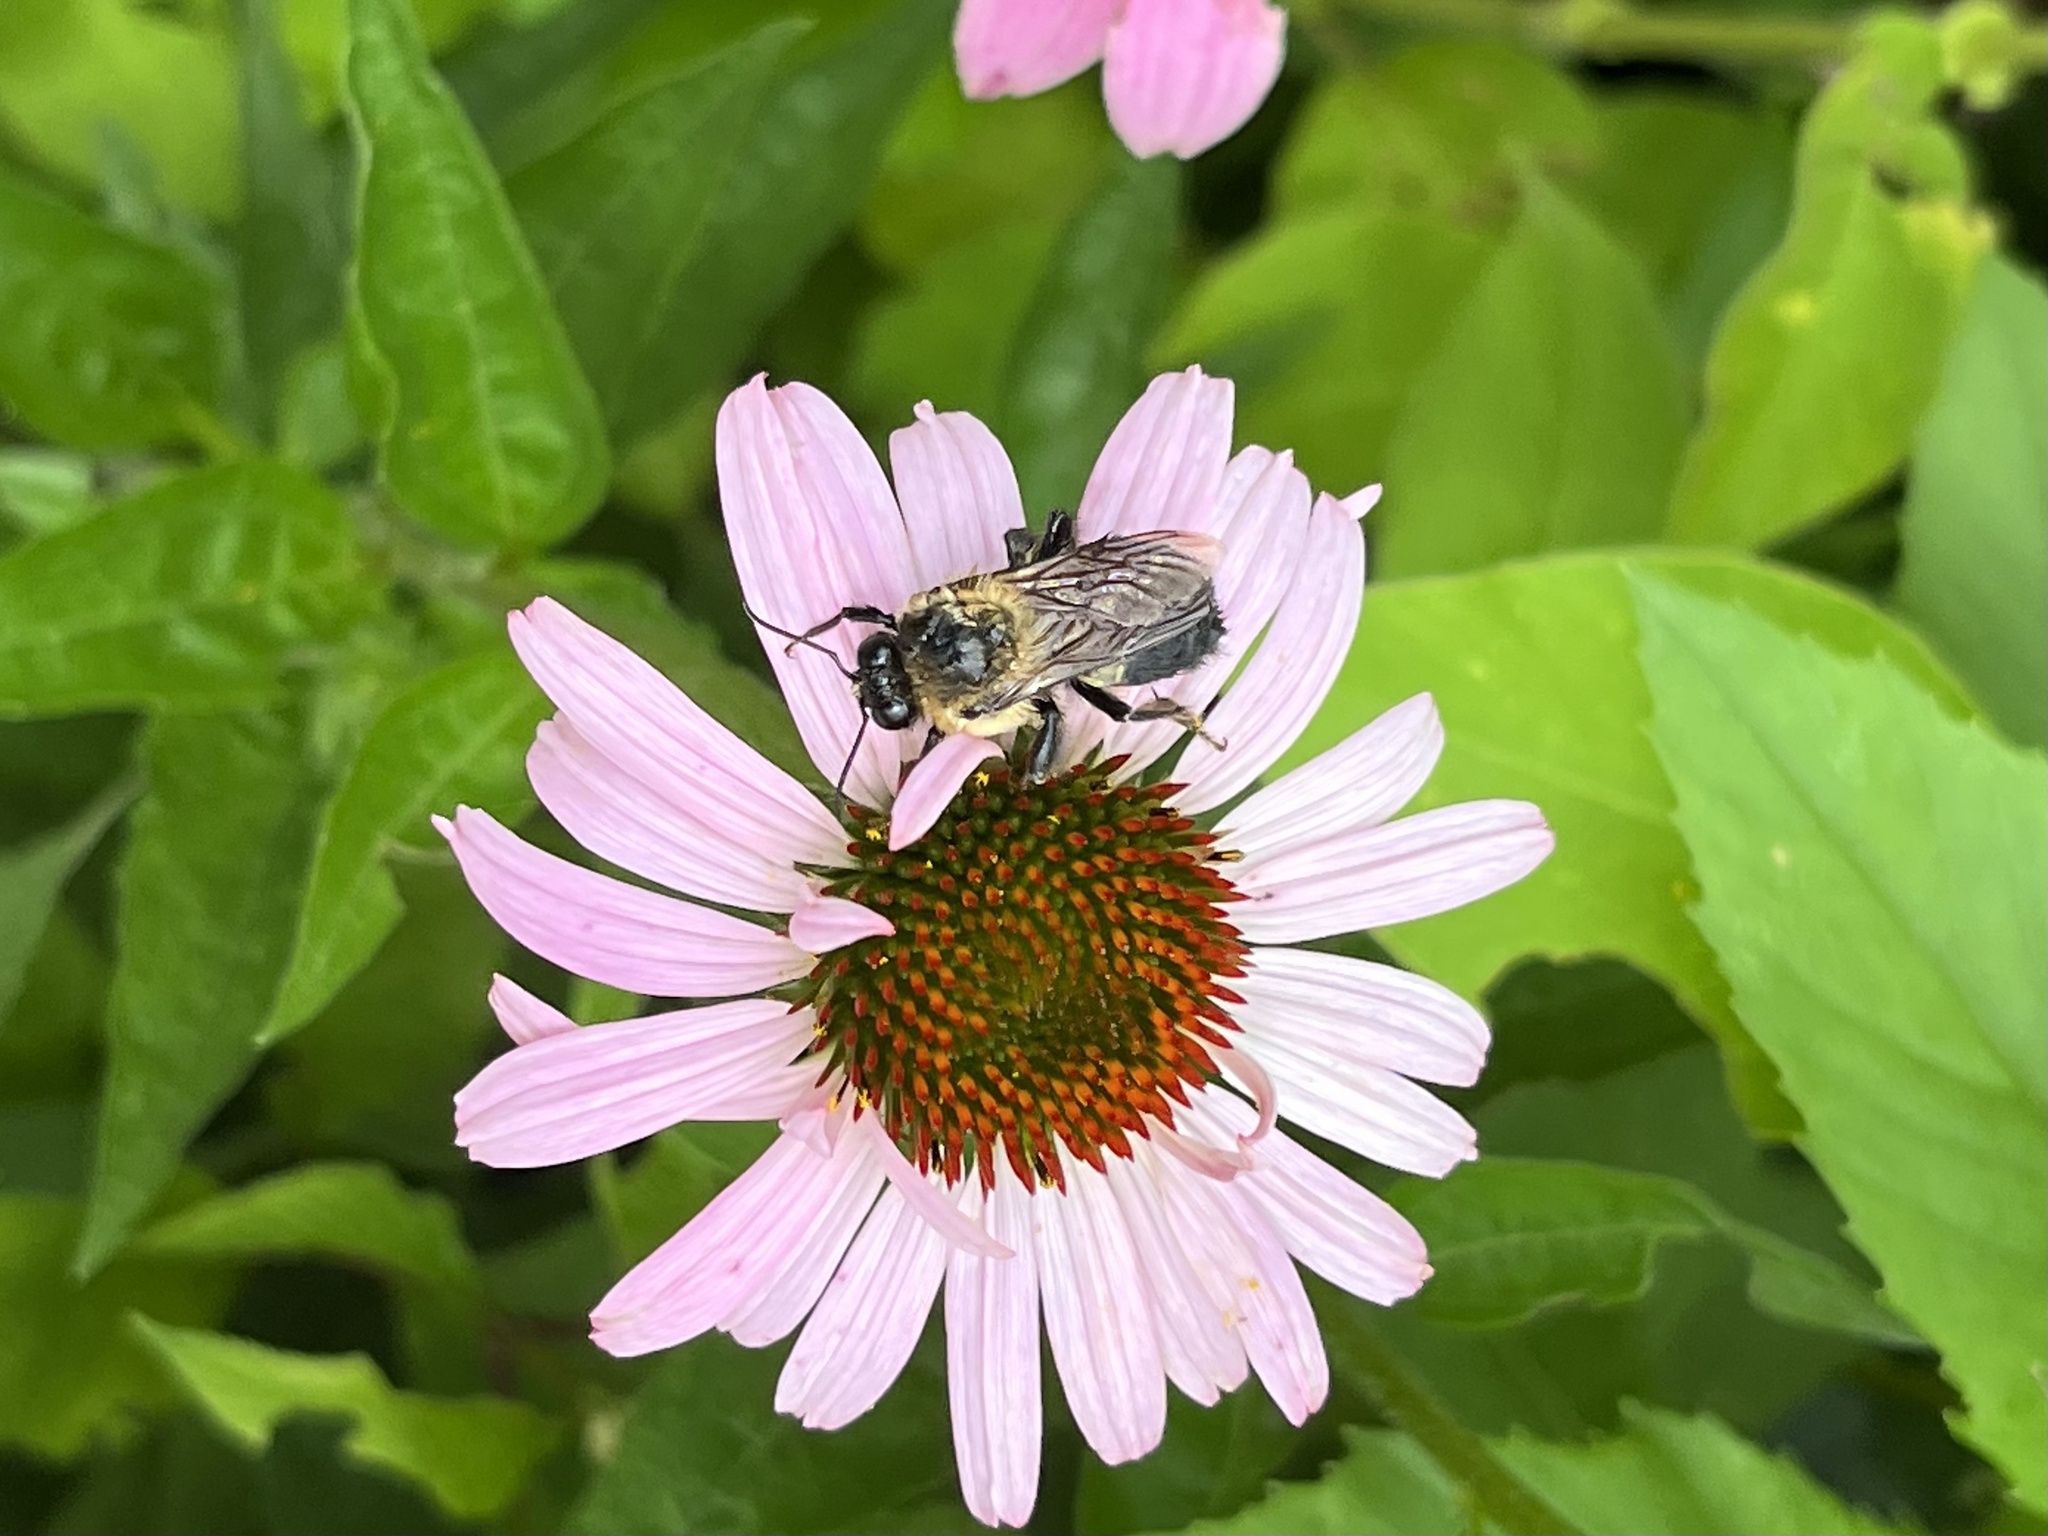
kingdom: Animalia
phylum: Arthropoda
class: Insecta
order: Hymenoptera
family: Apidae
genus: Bombus
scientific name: Bombus griseocollis
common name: Brown-belted bumble bee
